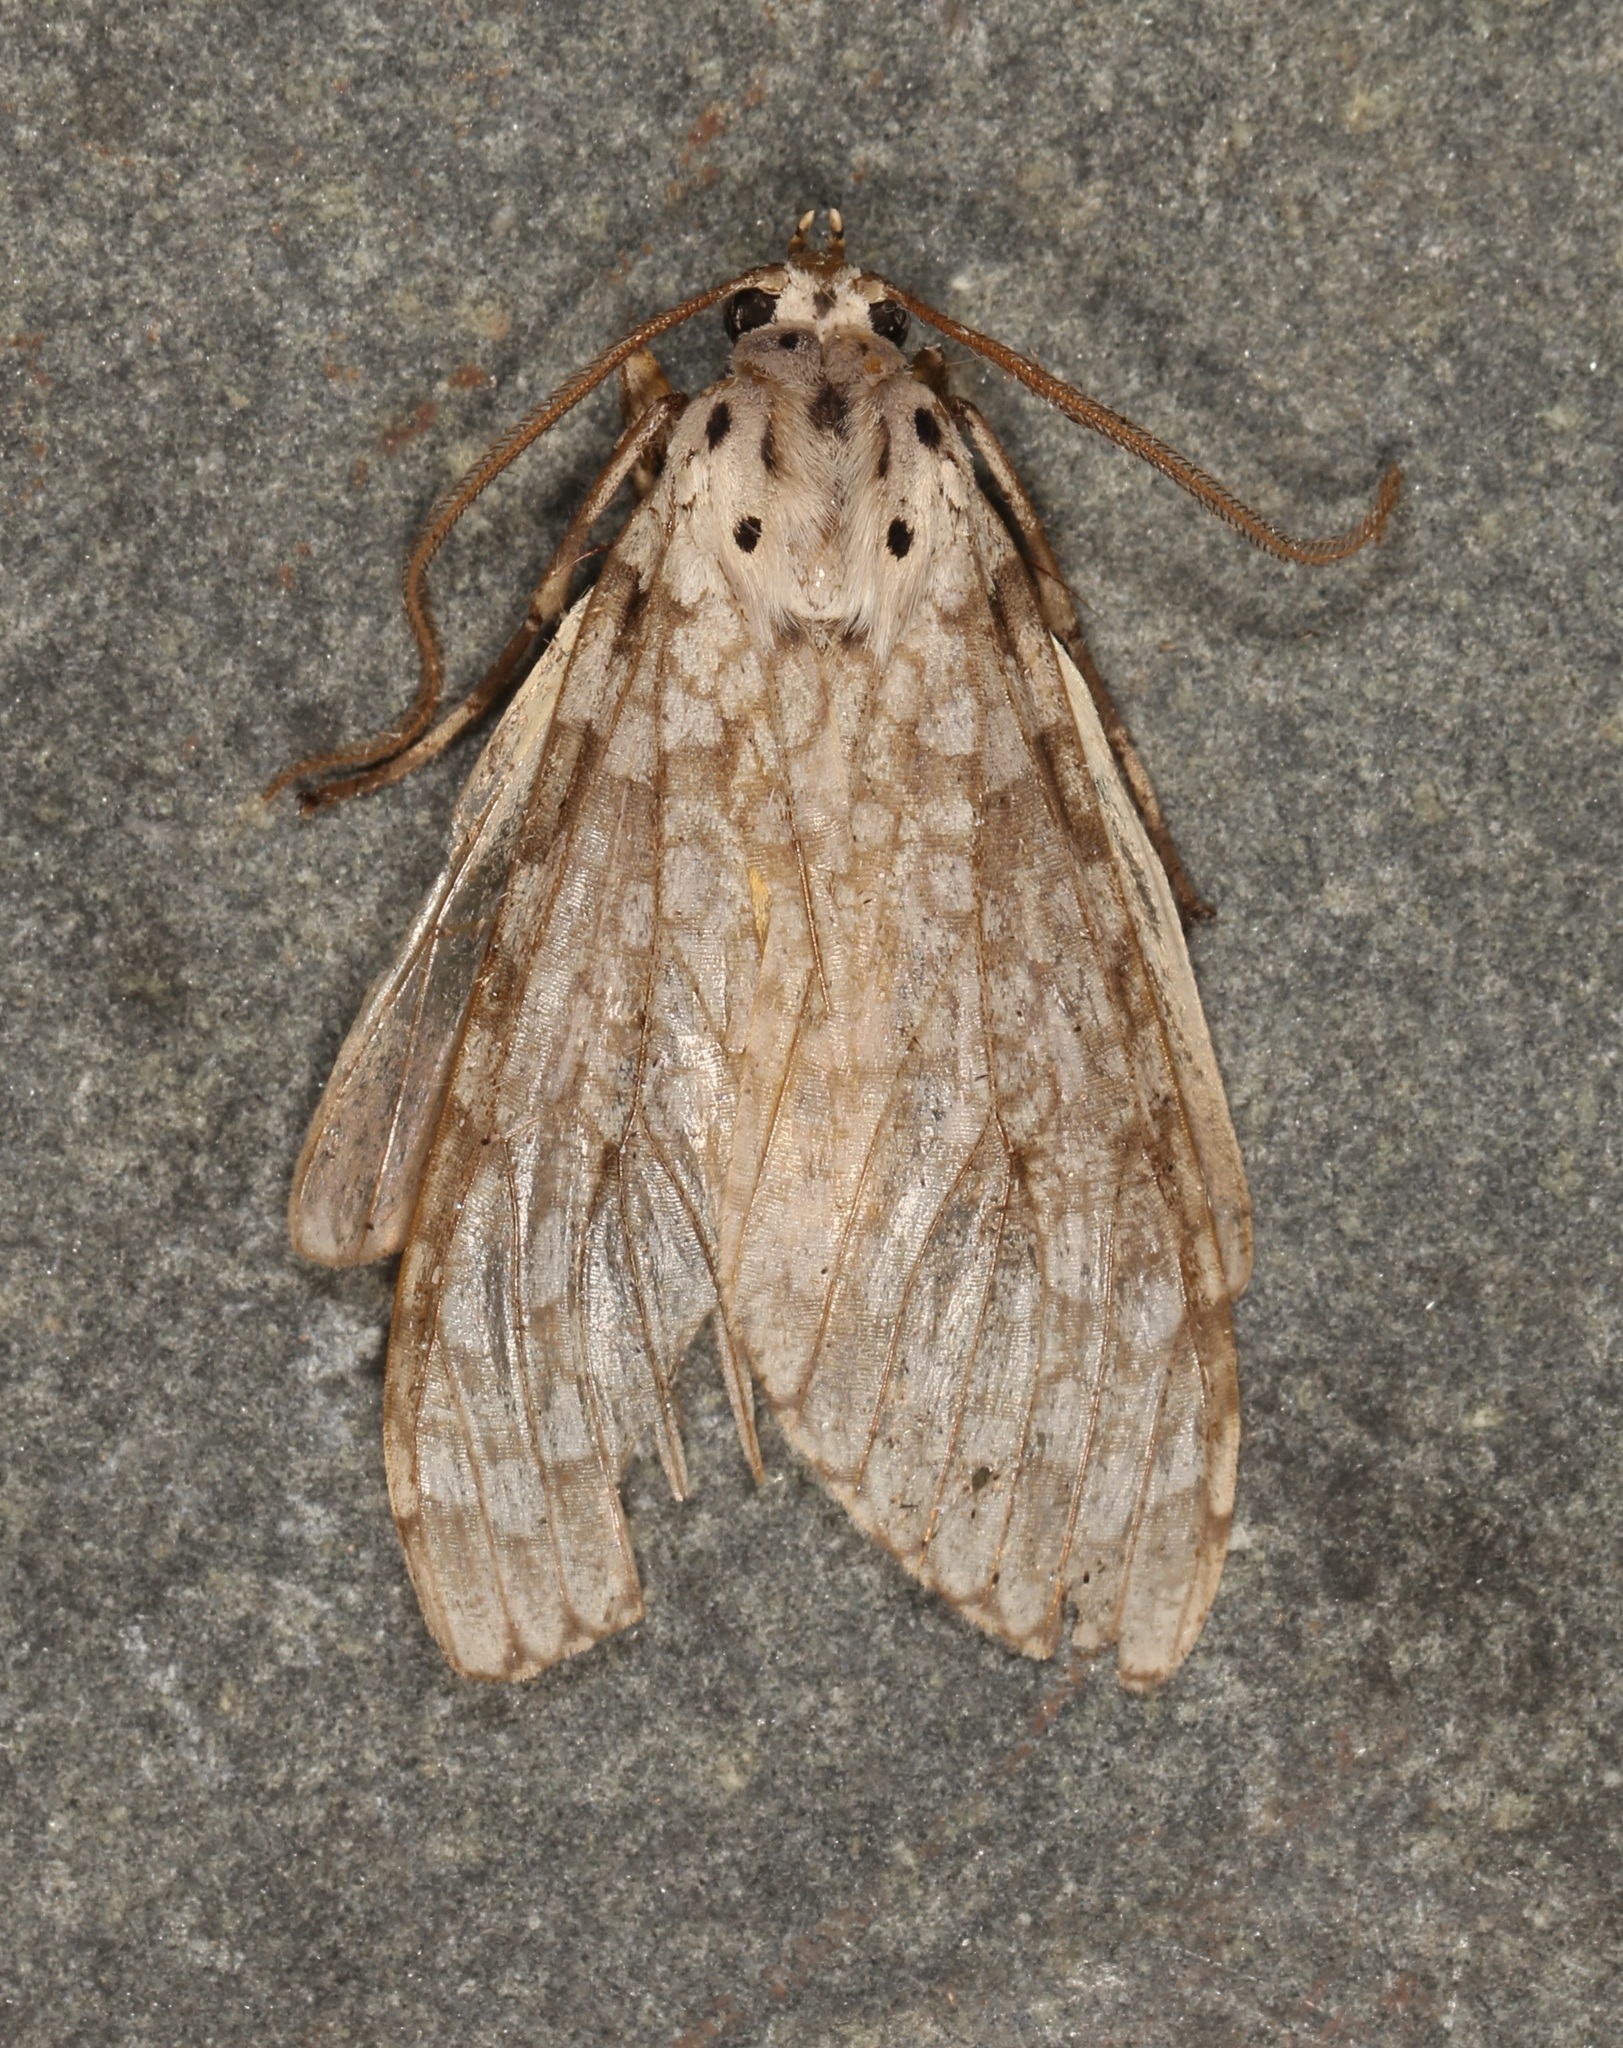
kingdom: Animalia
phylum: Arthropoda
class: Insecta
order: Lepidoptera
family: Erebidae
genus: Carales
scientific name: Carales arizonensis
